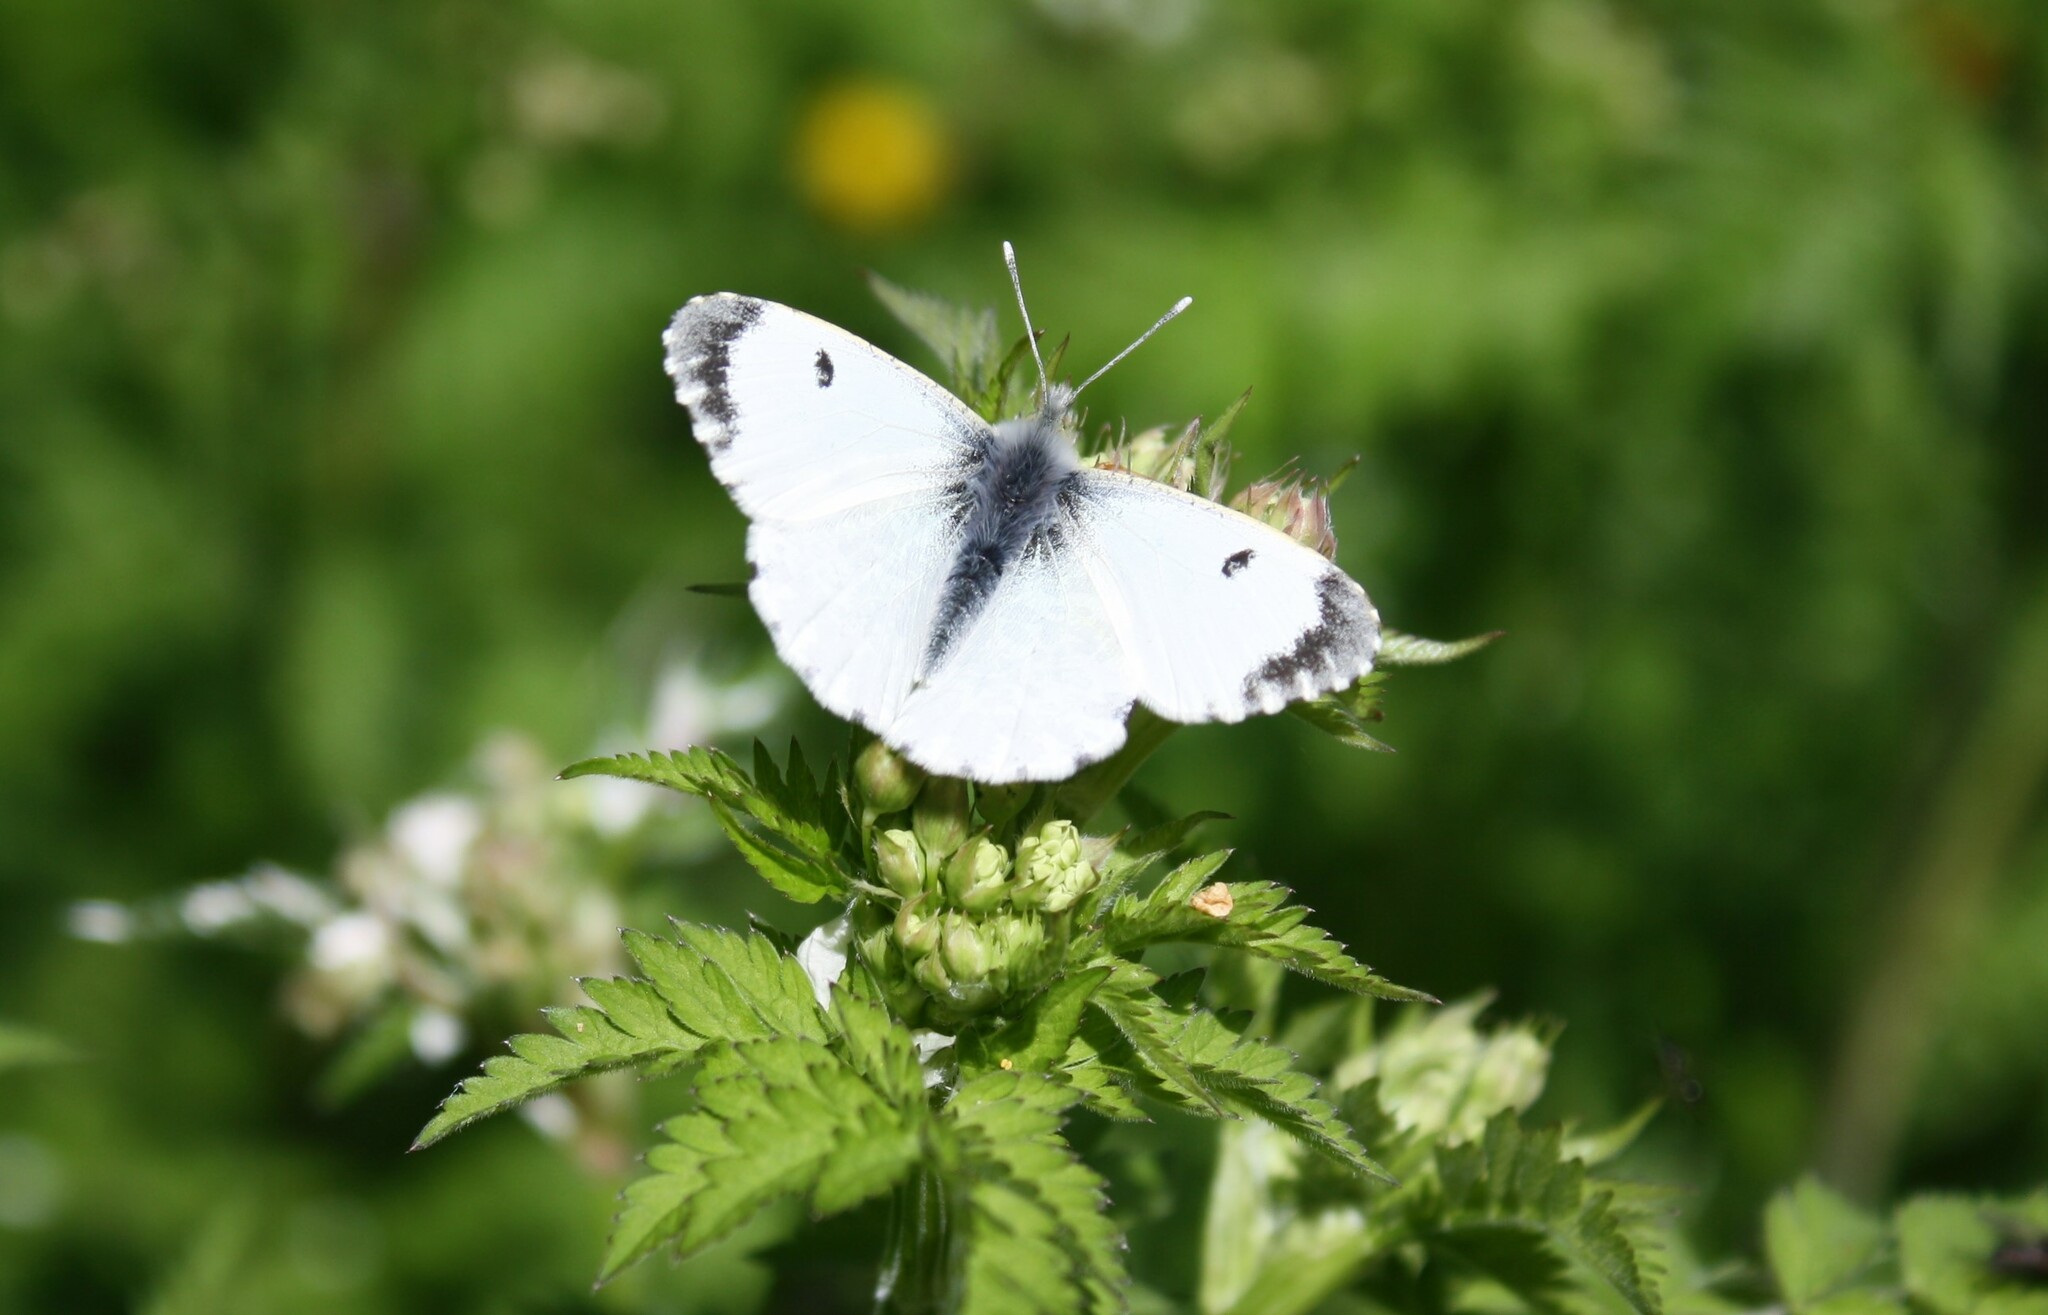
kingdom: Animalia
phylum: Arthropoda
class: Insecta
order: Lepidoptera
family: Pieridae
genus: Anthocharis
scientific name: Anthocharis cardamines
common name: Orange-tip
